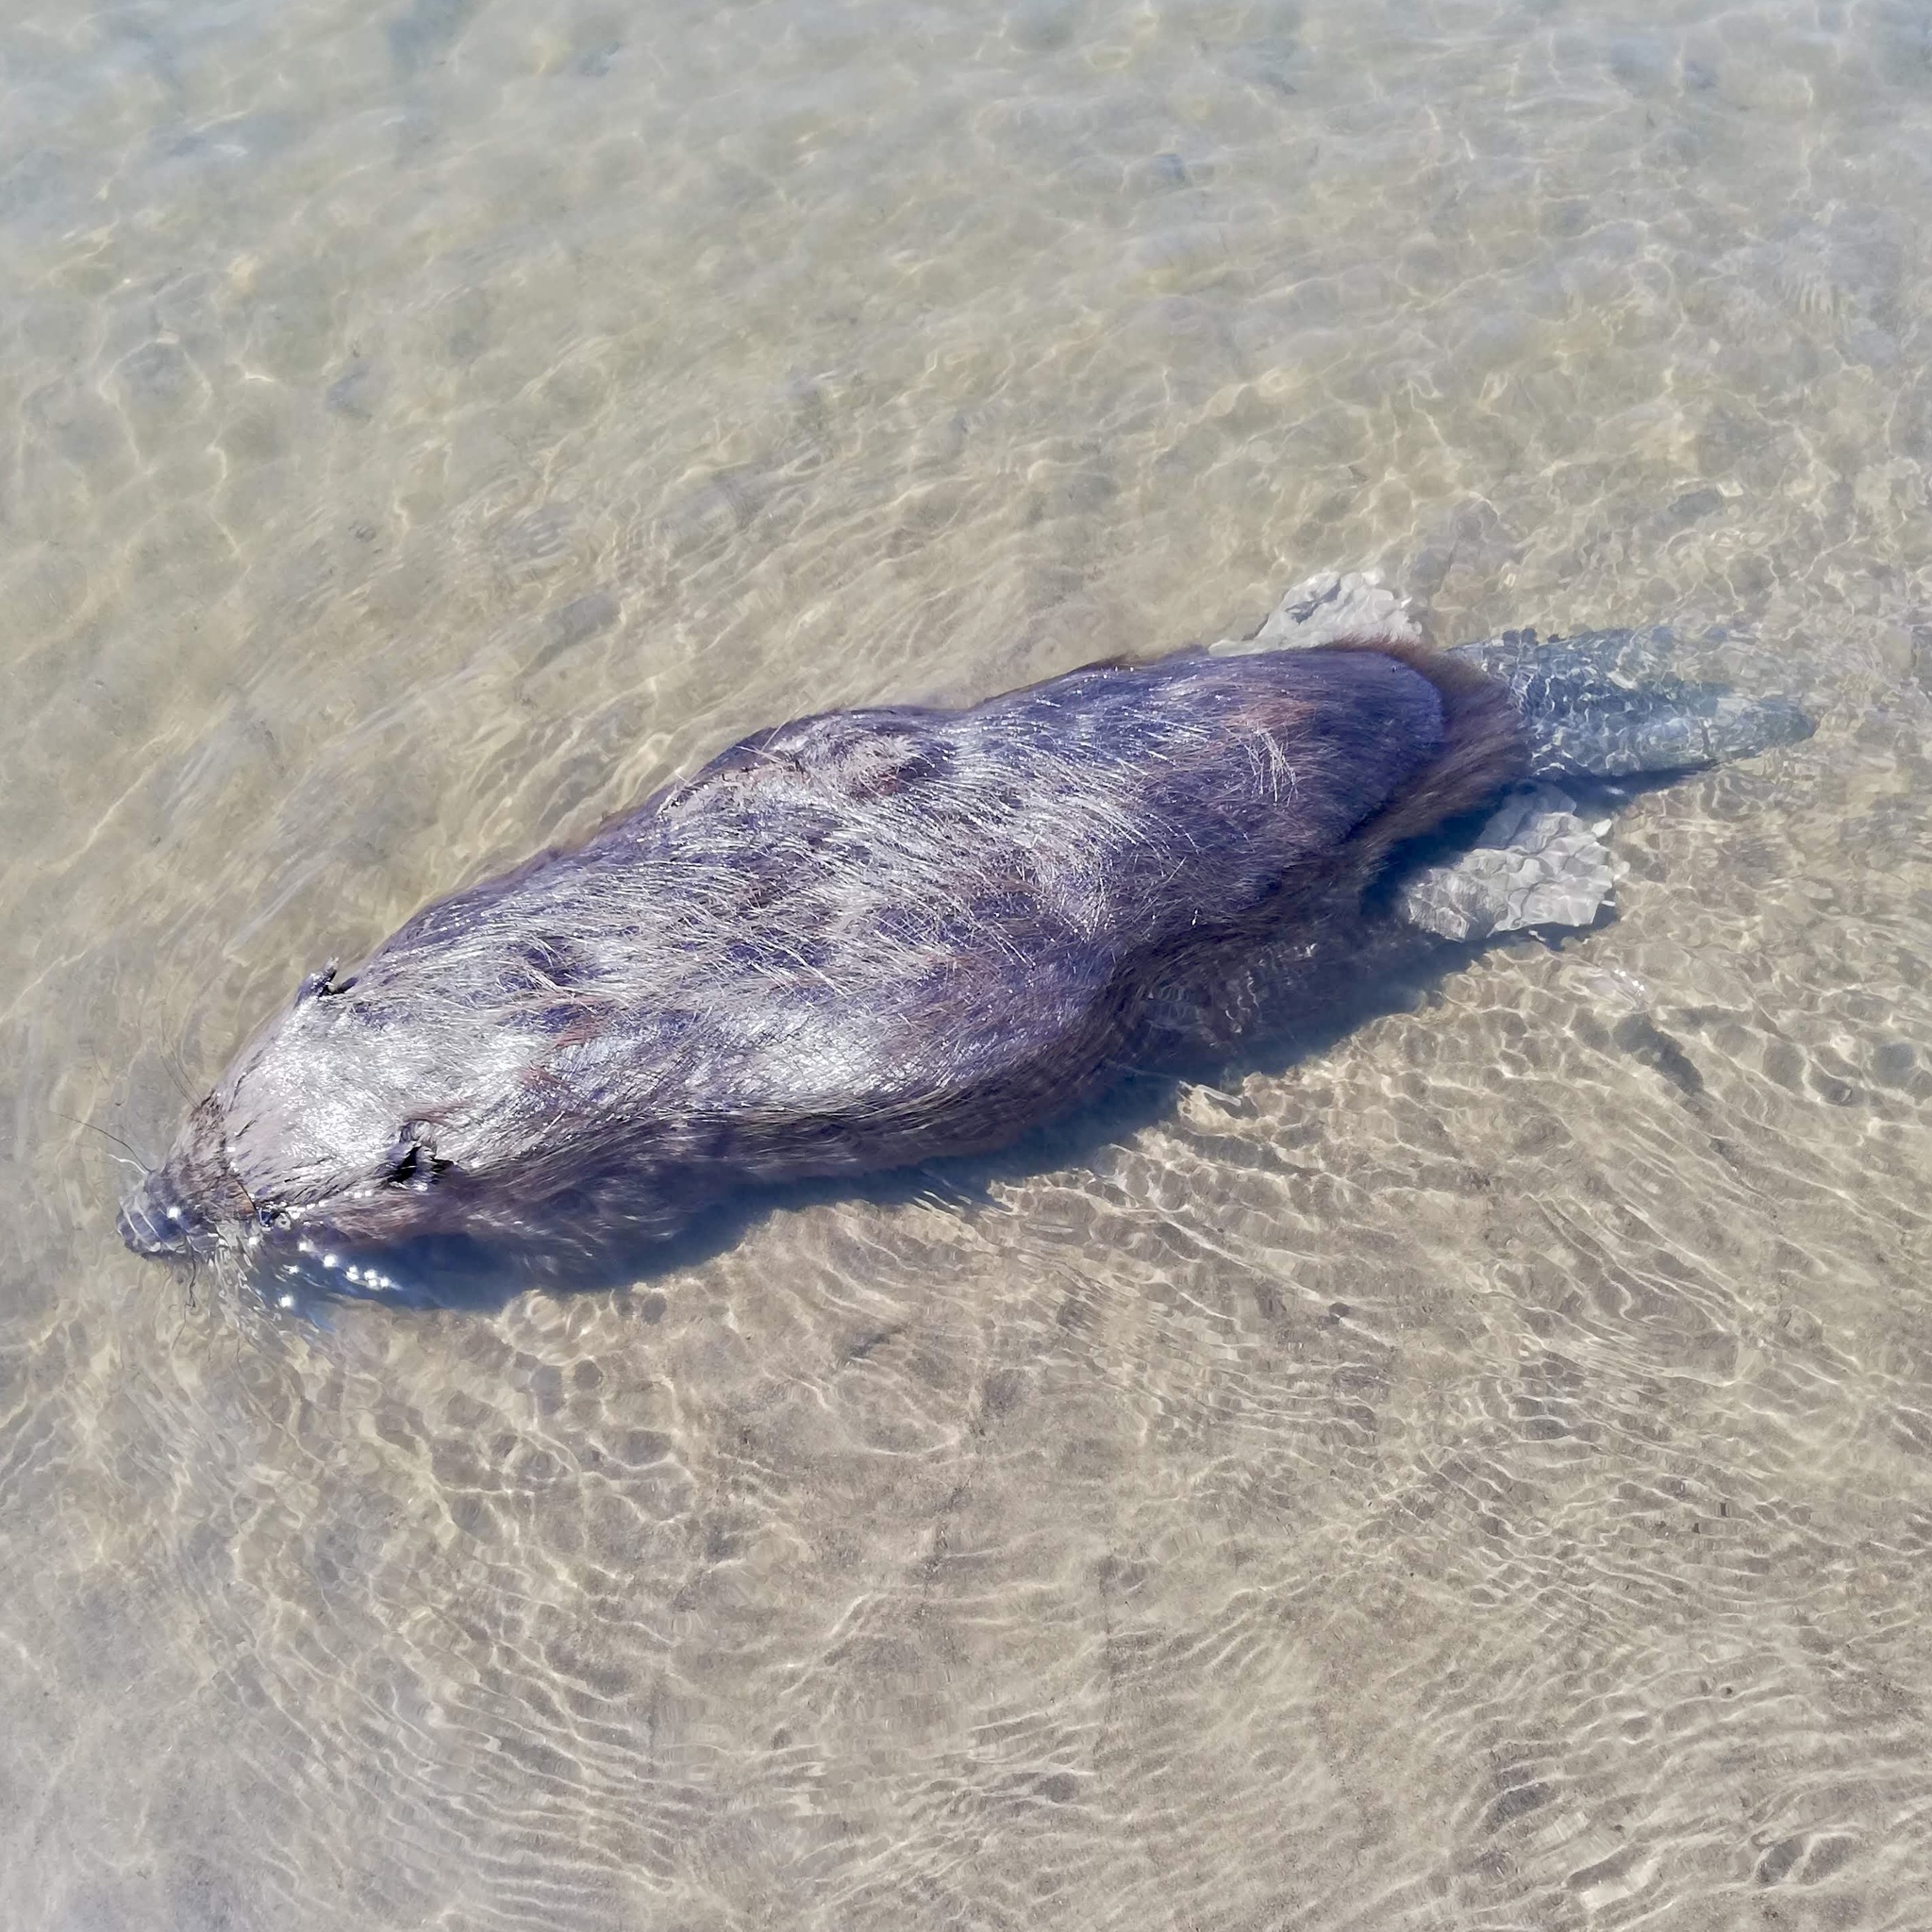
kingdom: Animalia
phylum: Chordata
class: Mammalia
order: Rodentia
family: Castoridae
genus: Castor
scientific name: Castor fiber
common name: Eurasian beaver
